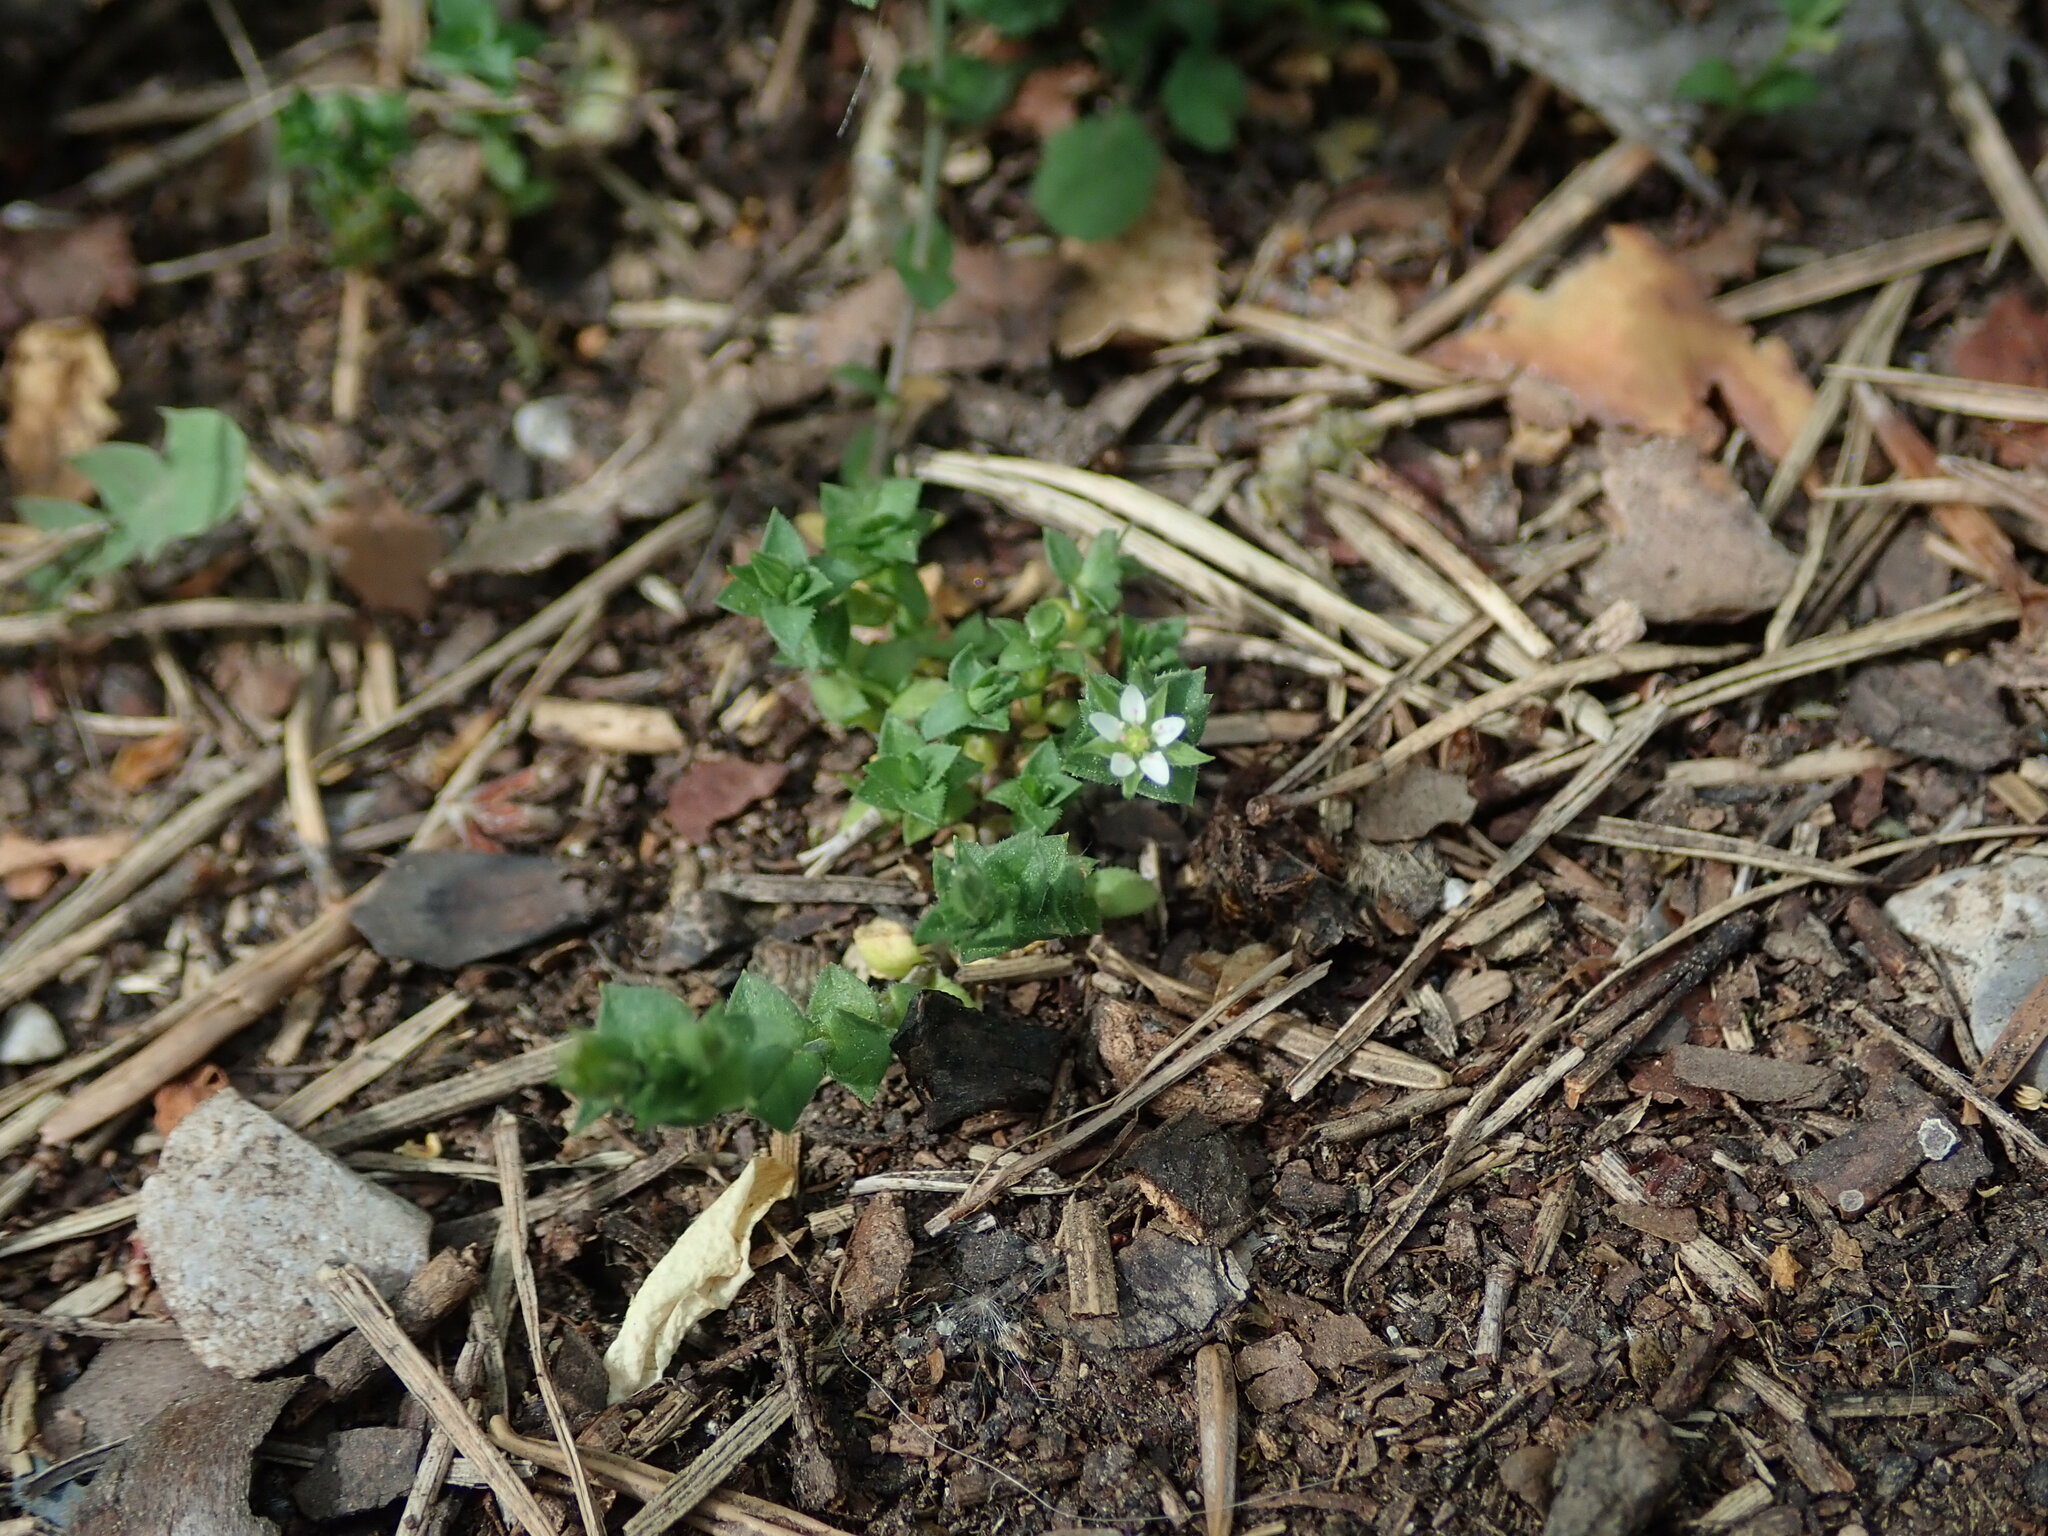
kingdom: Plantae
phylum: Tracheophyta
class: Magnoliopsida
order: Caryophyllales
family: Caryophyllaceae
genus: Arenaria
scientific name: Arenaria serpyllifolia
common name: Thyme-leaved sandwort
